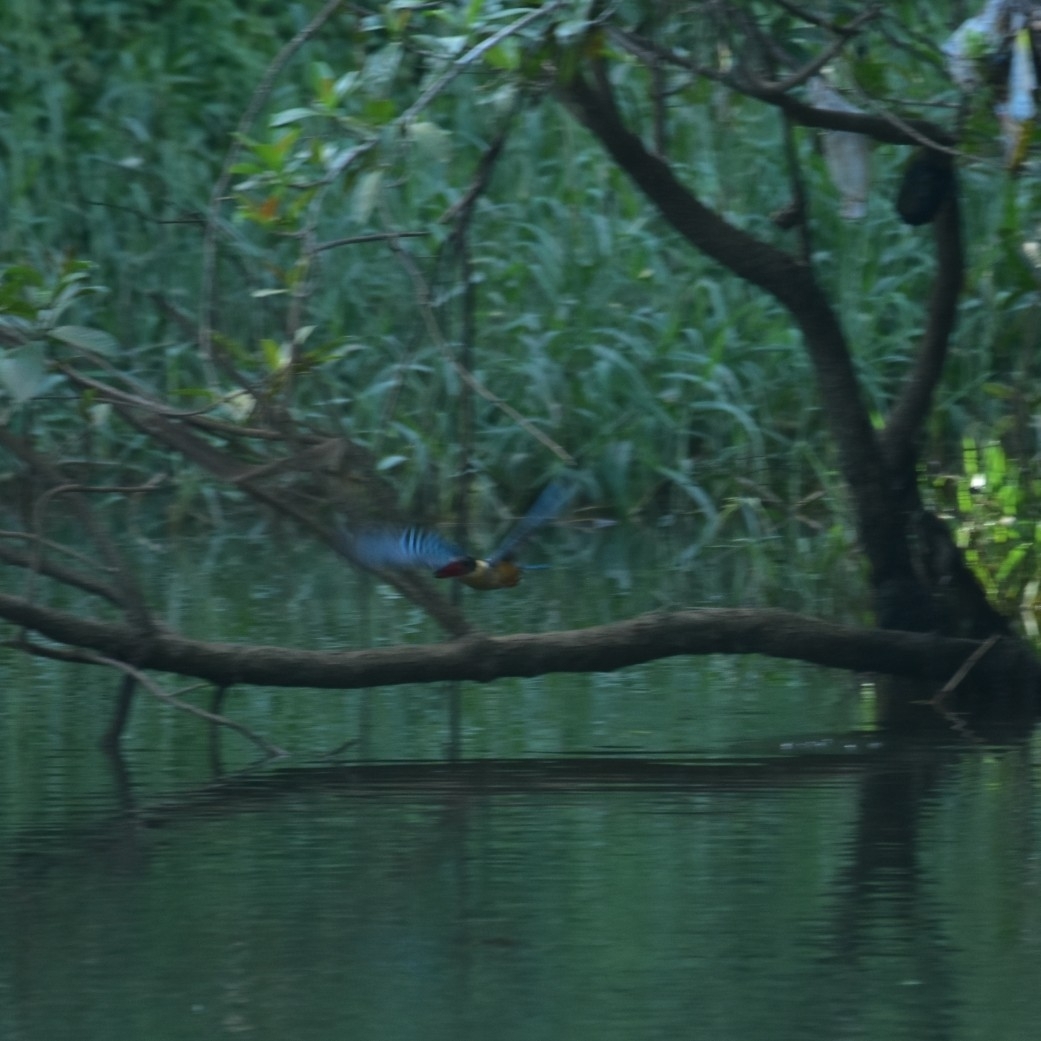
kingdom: Animalia
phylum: Chordata
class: Aves
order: Coraciiformes
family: Alcedinidae
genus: Pelargopsis
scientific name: Pelargopsis capensis
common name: Stork-billed kingfisher
